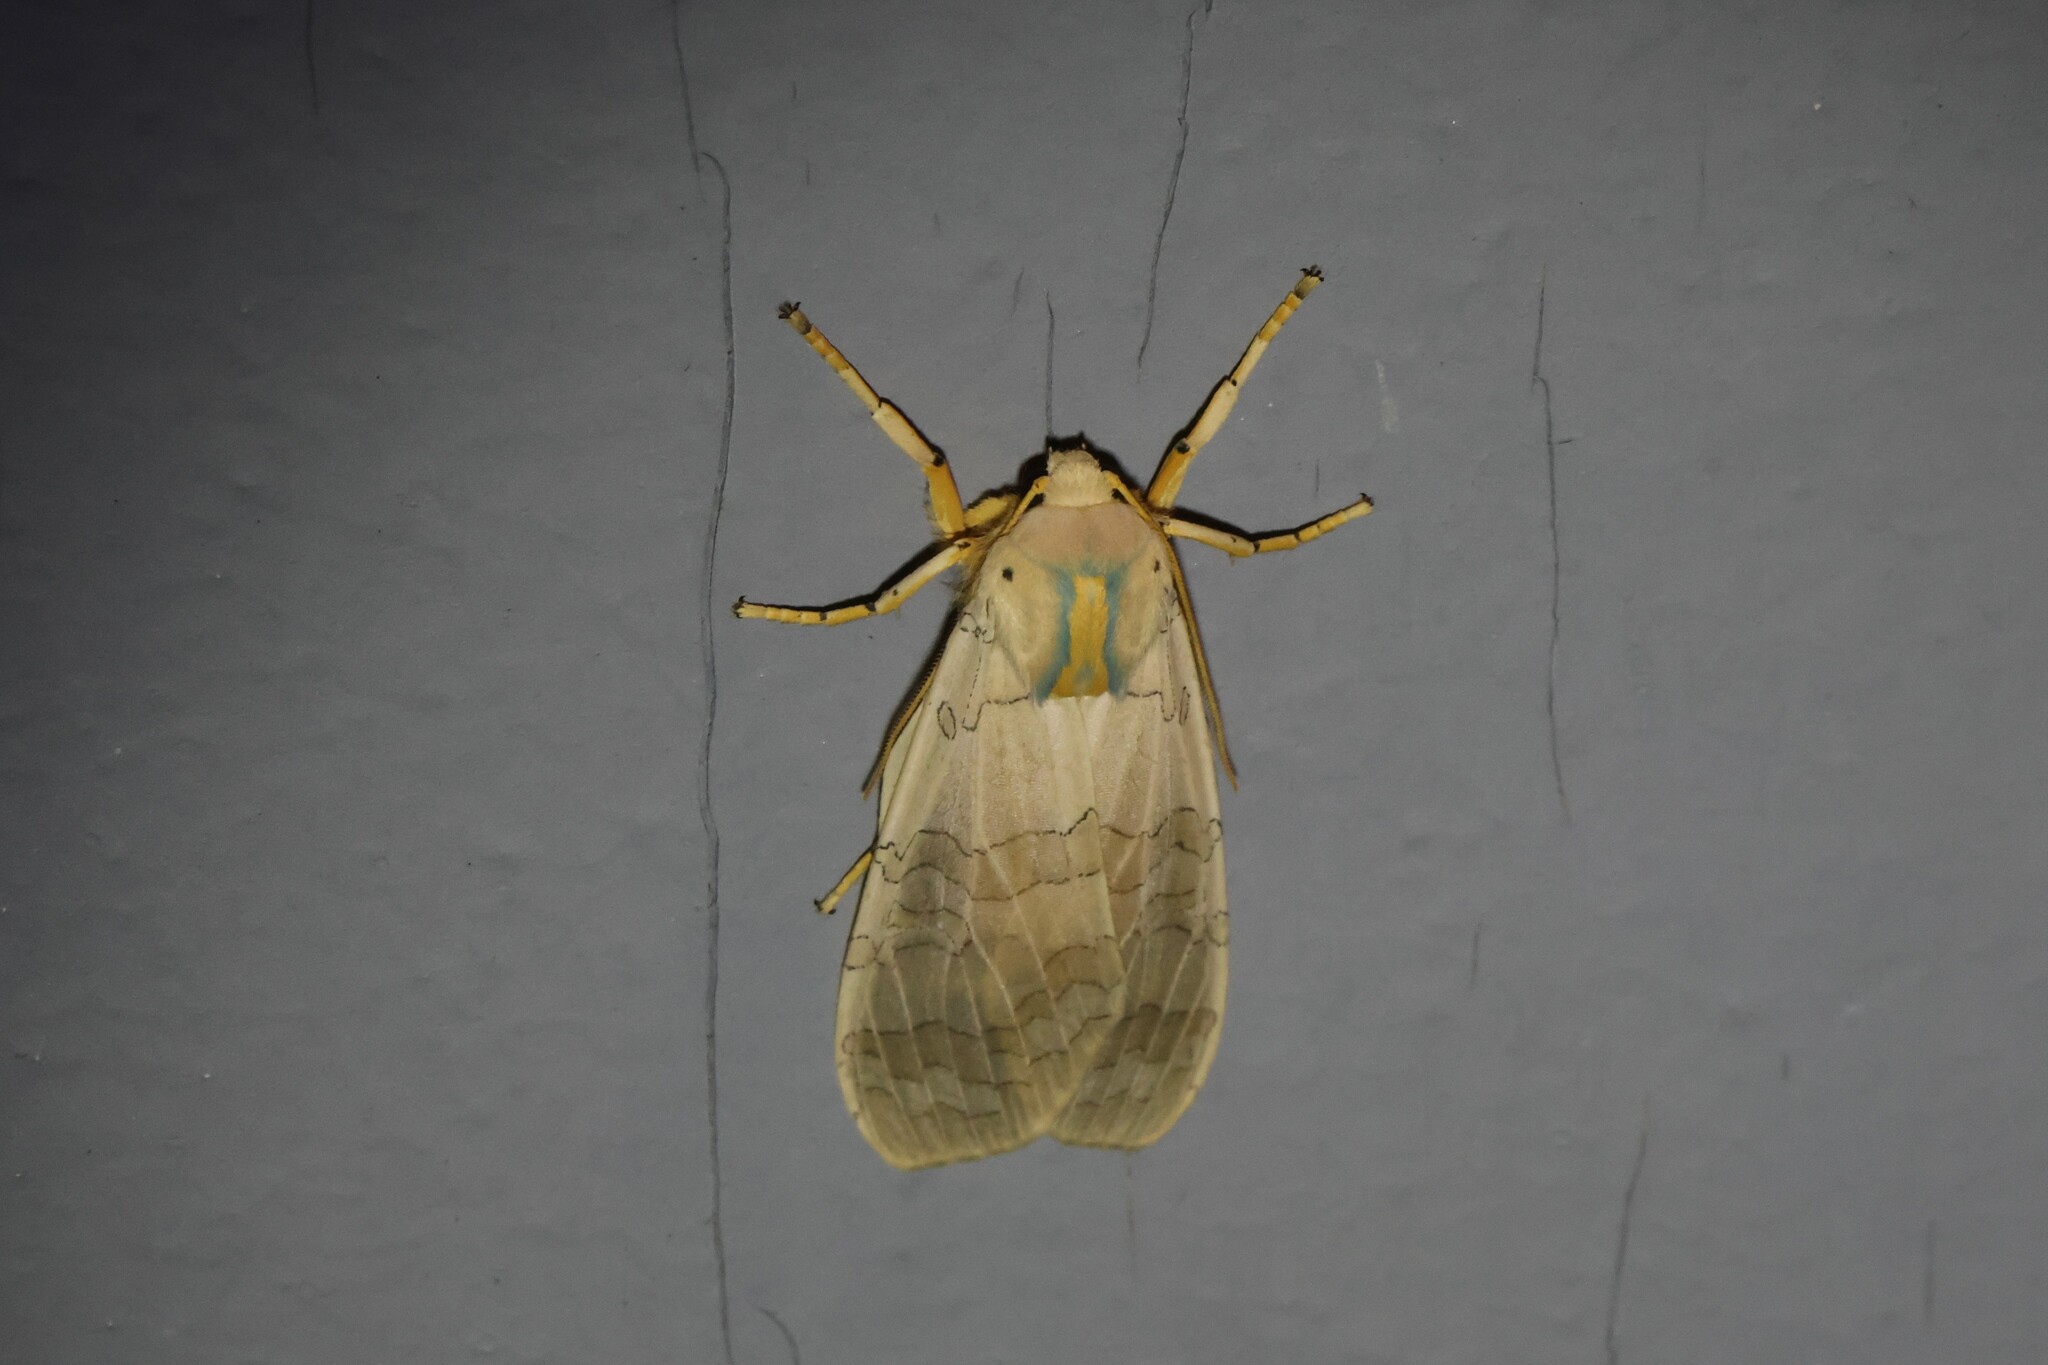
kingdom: Animalia
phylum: Arthropoda
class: Insecta
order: Lepidoptera
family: Erebidae
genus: Halysidota
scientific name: Halysidota tessellaris
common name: Banded tussock moth
